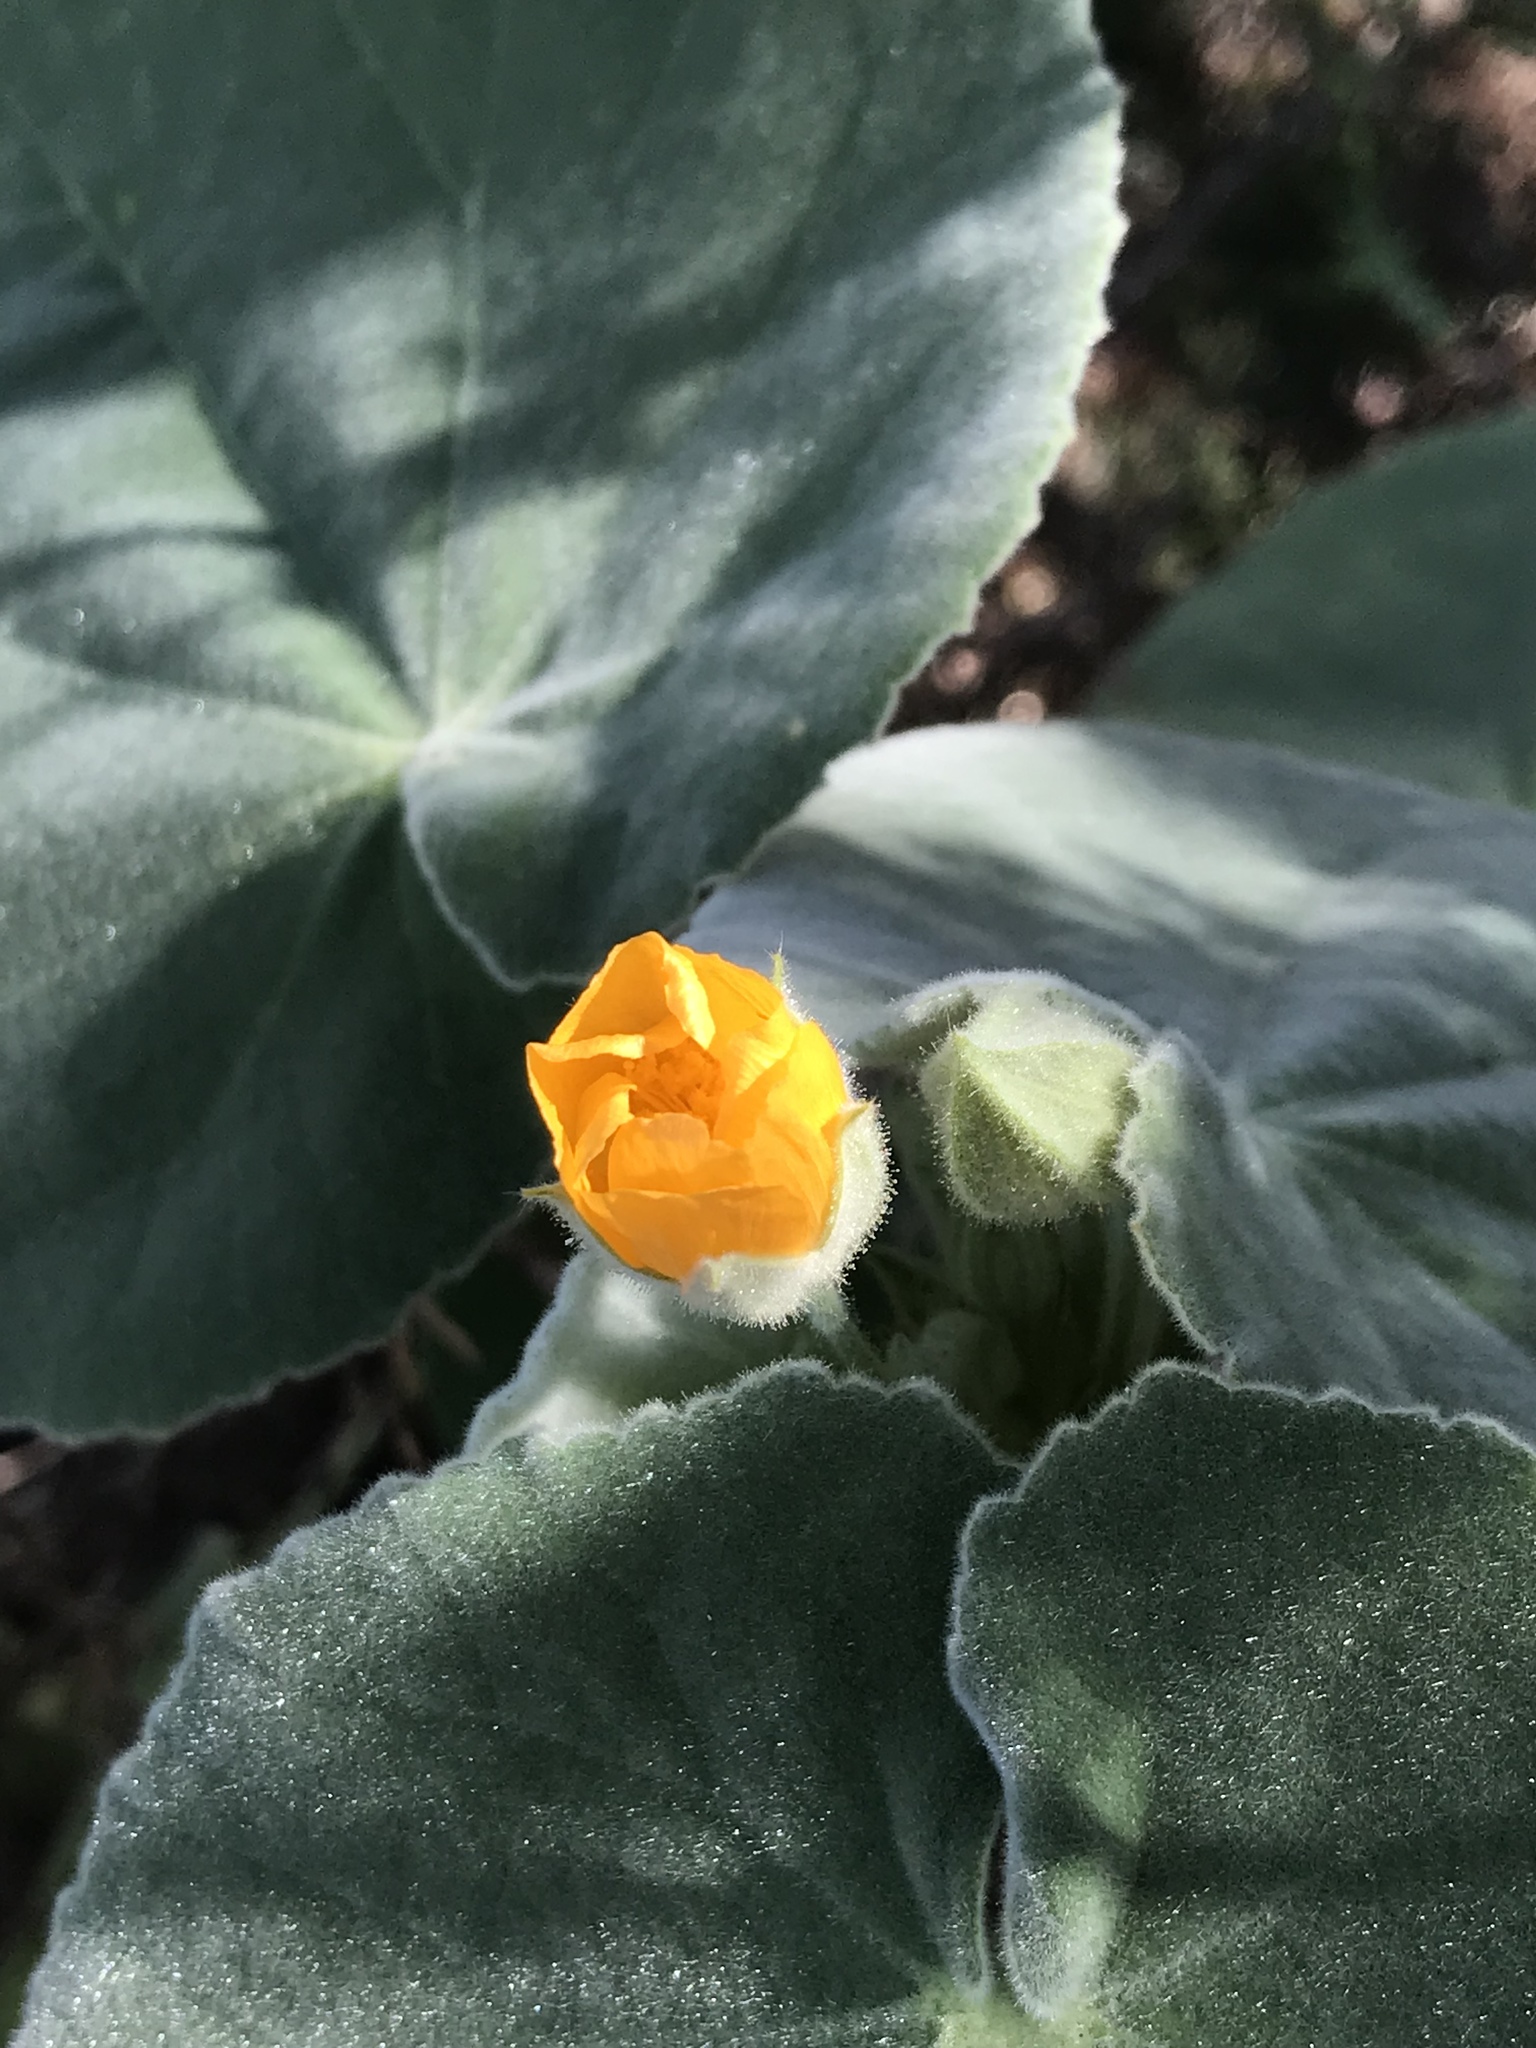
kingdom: Plantae
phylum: Tracheophyta
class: Magnoliopsida
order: Malvales
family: Malvaceae
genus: Allowissadula
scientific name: Allowissadula holosericea
